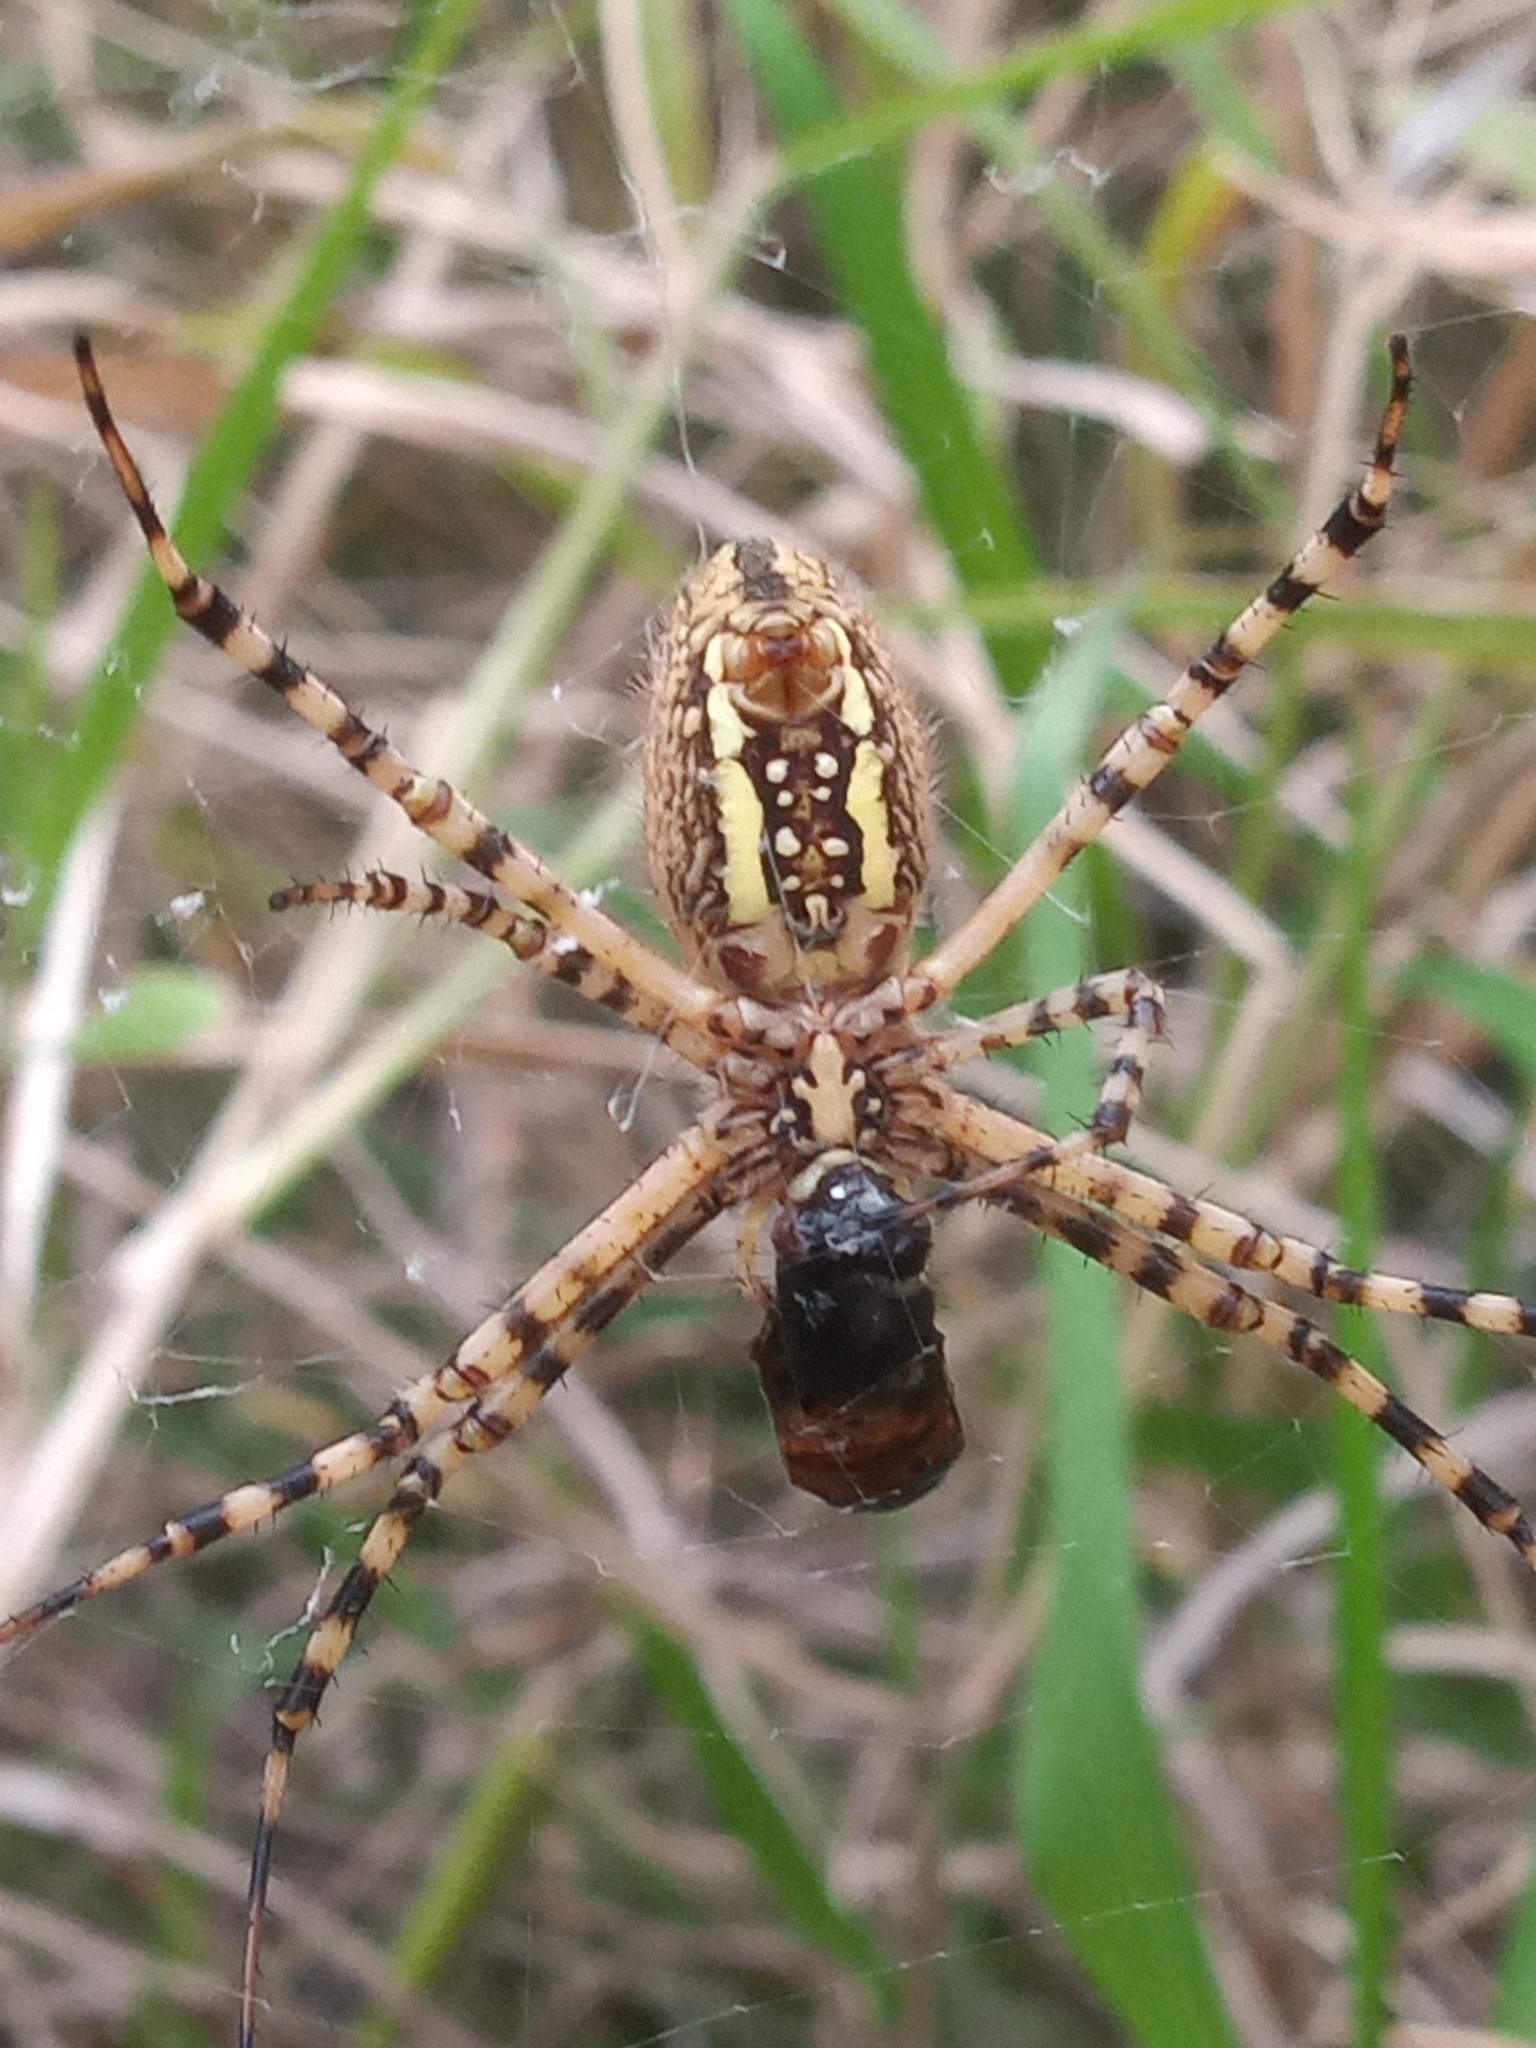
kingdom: Animalia
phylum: Arthropoda
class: Arachnida
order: Araneae
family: Araneidae
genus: Argiope
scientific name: Argiope trifasciata
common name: Banded garden spider
